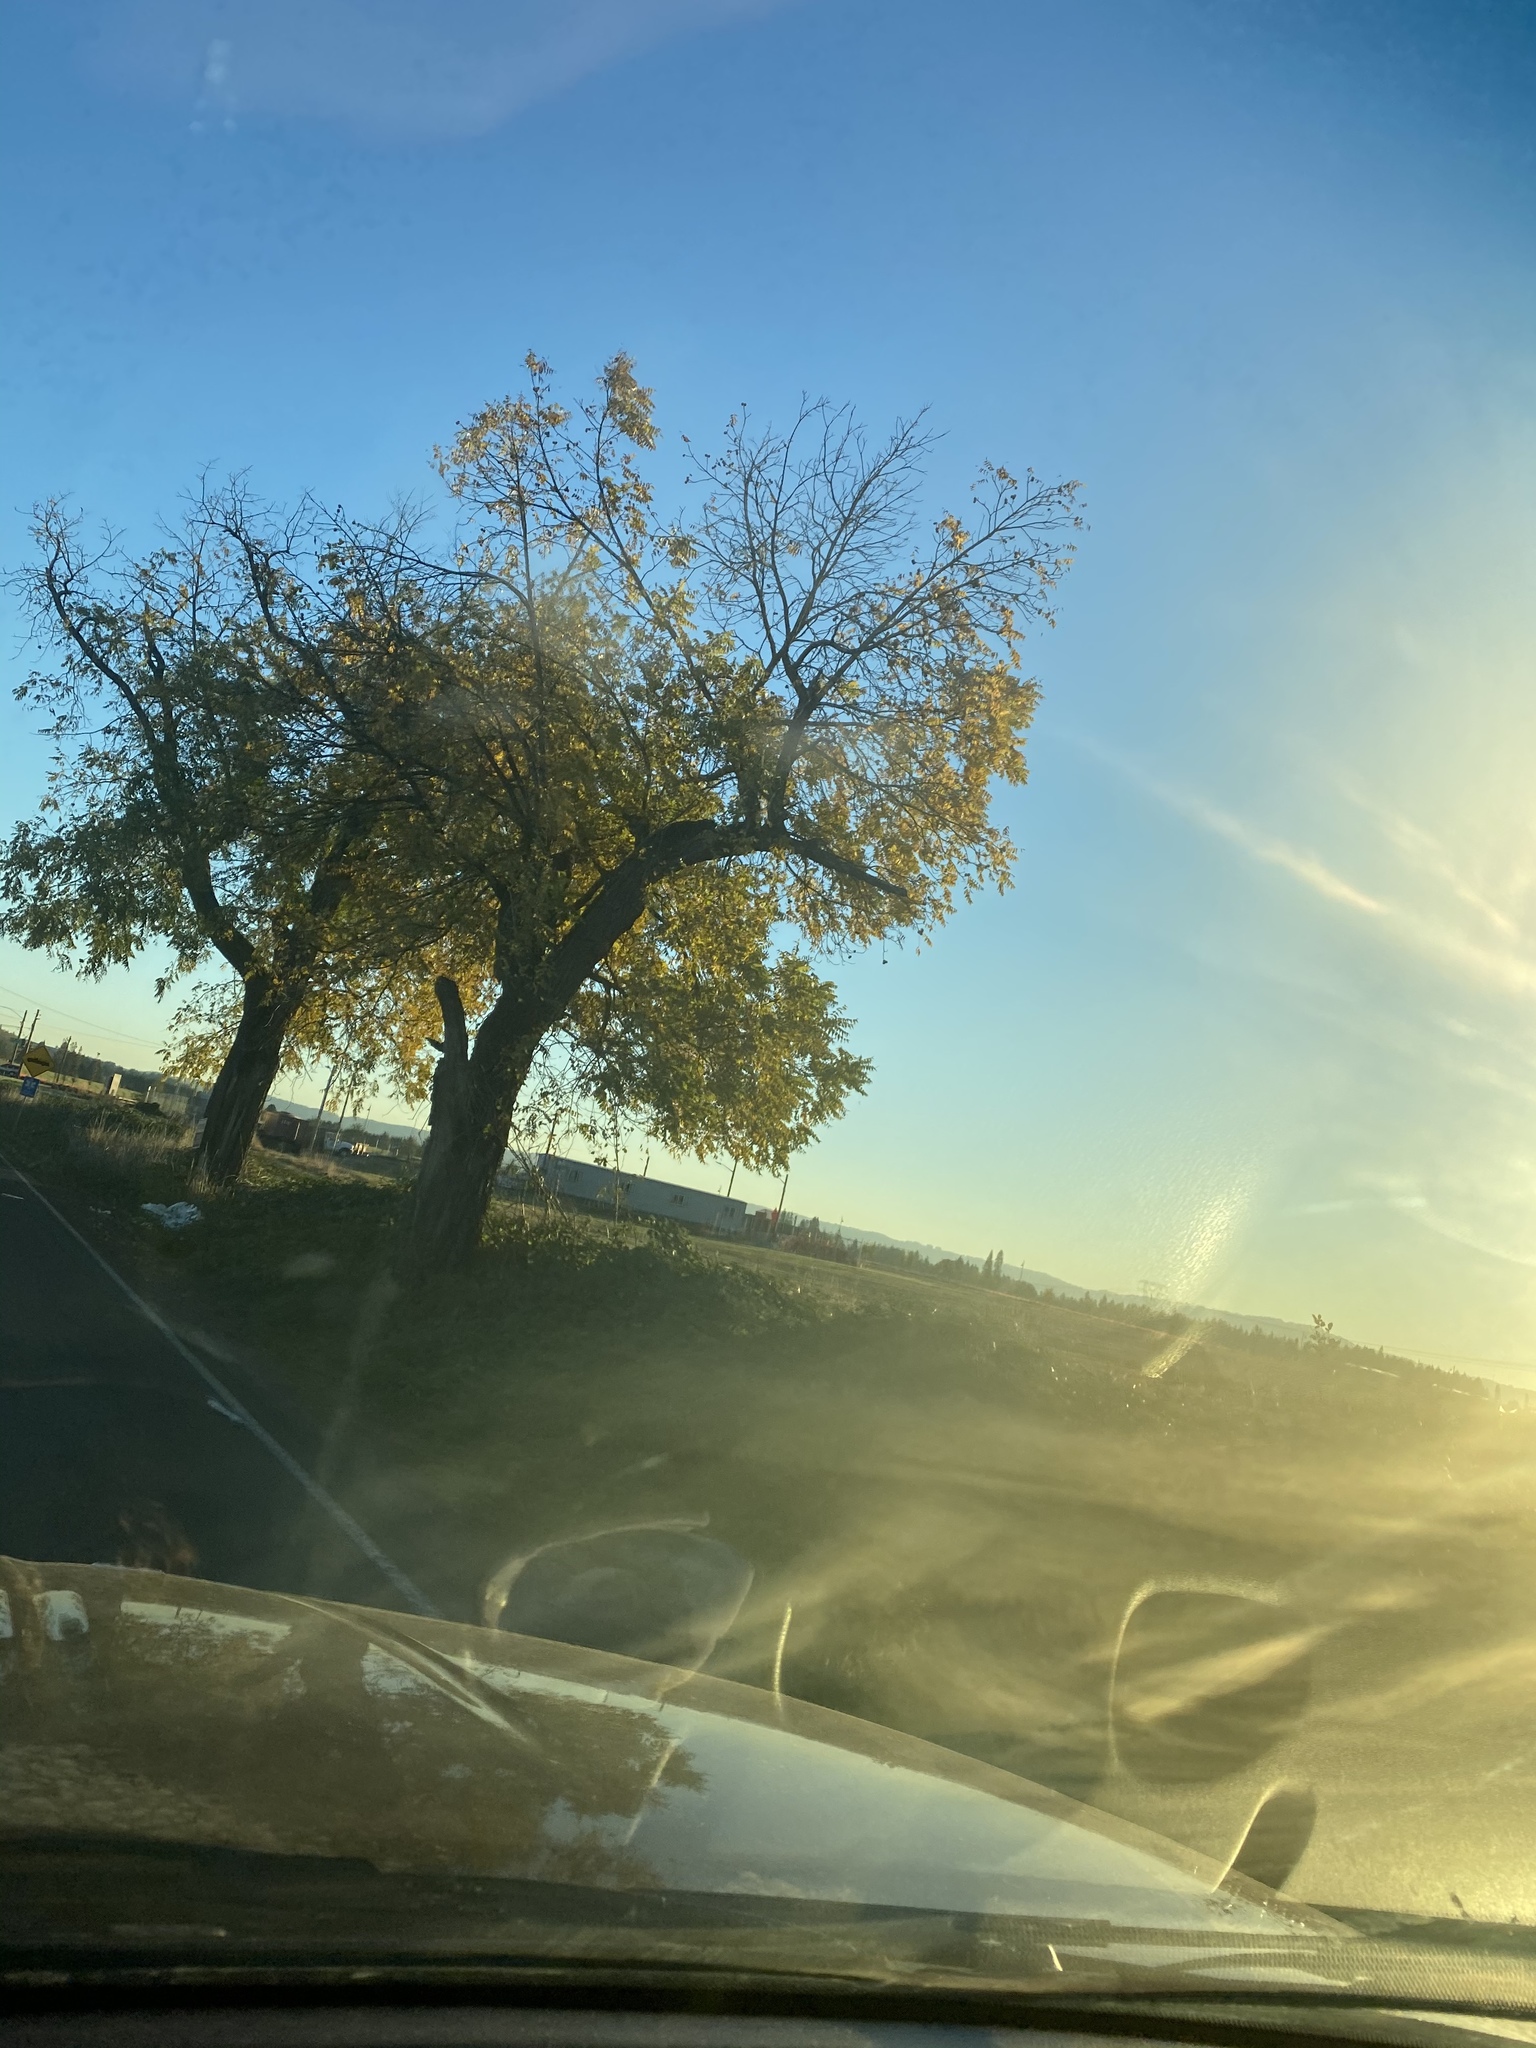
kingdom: Plantae
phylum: Tracheophyta
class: Magnoliopsida
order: Fagales
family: Juglandaceae
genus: Juglans
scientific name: Juglans nigra
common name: Black walnut
